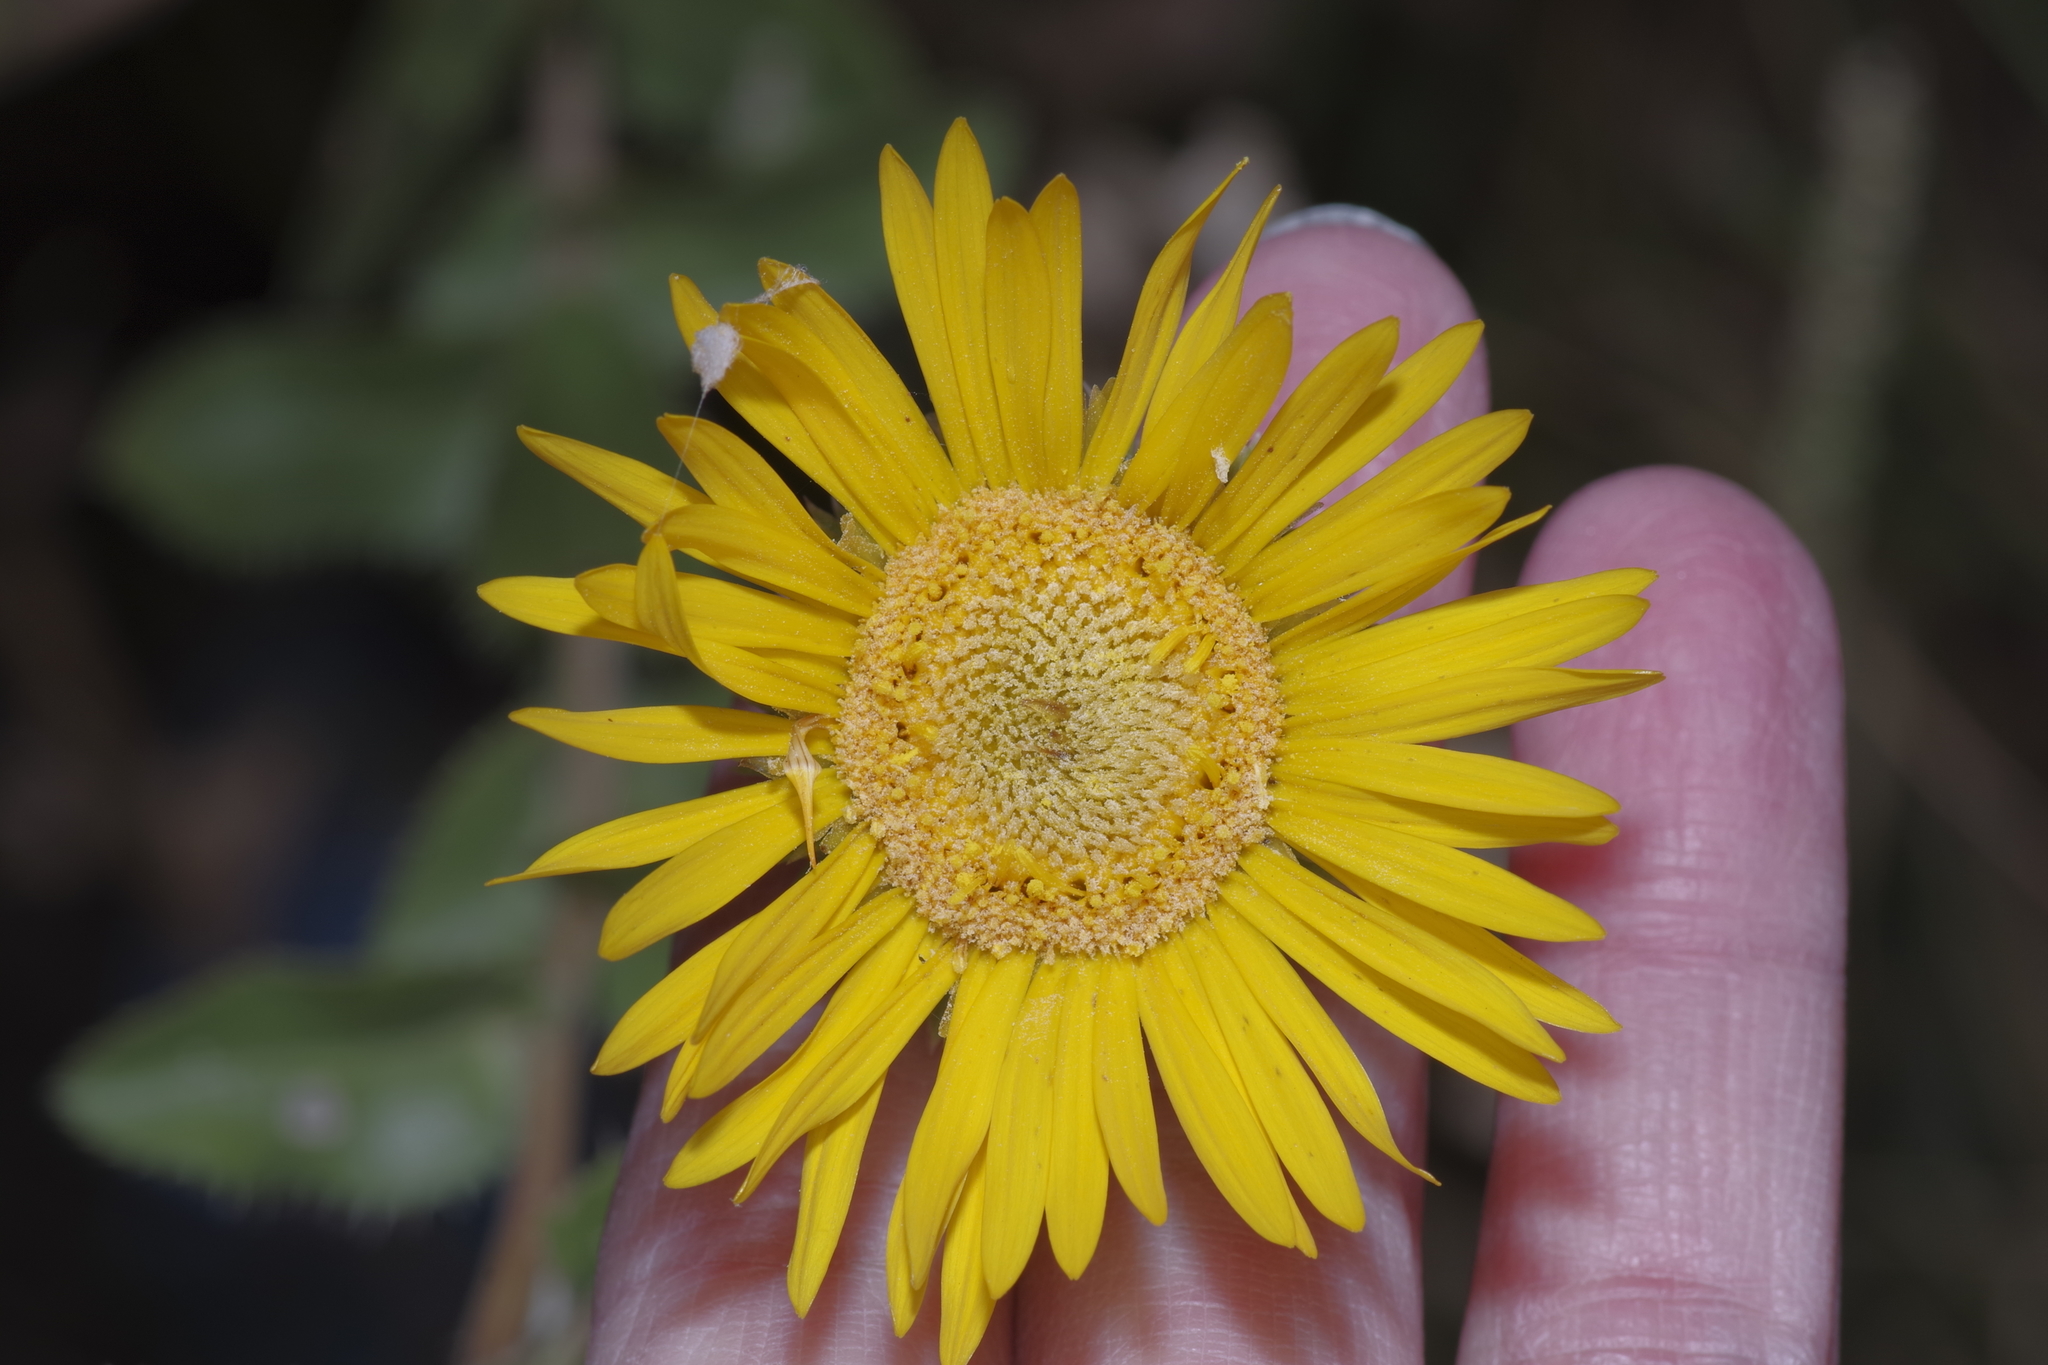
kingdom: Plantae
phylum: Tracheophyta
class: Magnoliopsida
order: Asterales
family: Asteraceae
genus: Grindelia
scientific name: Grindelia ciliata
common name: Goldenweed
